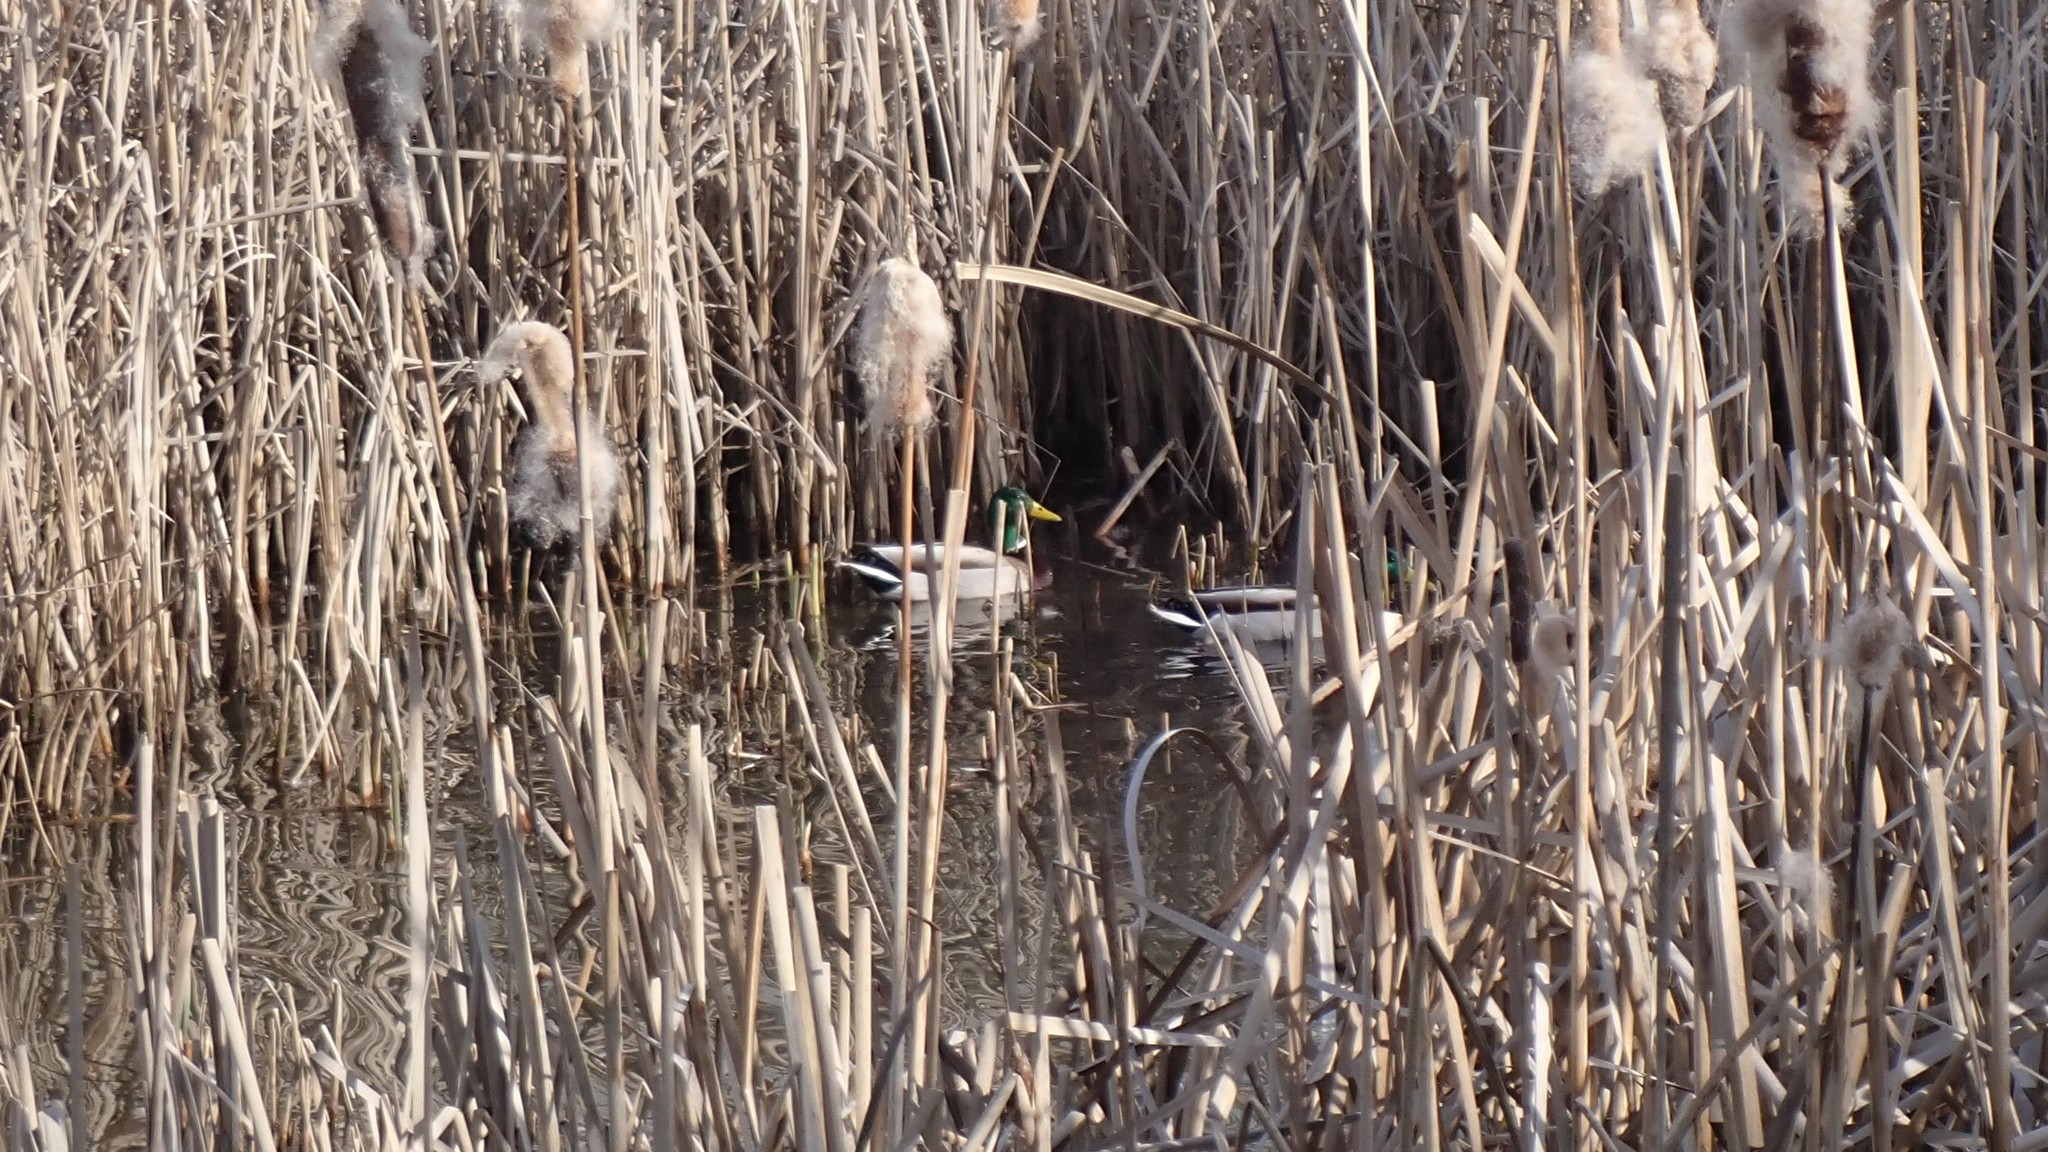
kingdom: Animalia
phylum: Chordata
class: Aves
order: Anseriformes
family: Anatidae
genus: Anas
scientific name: Anas platyrhynchos
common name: Mallard
